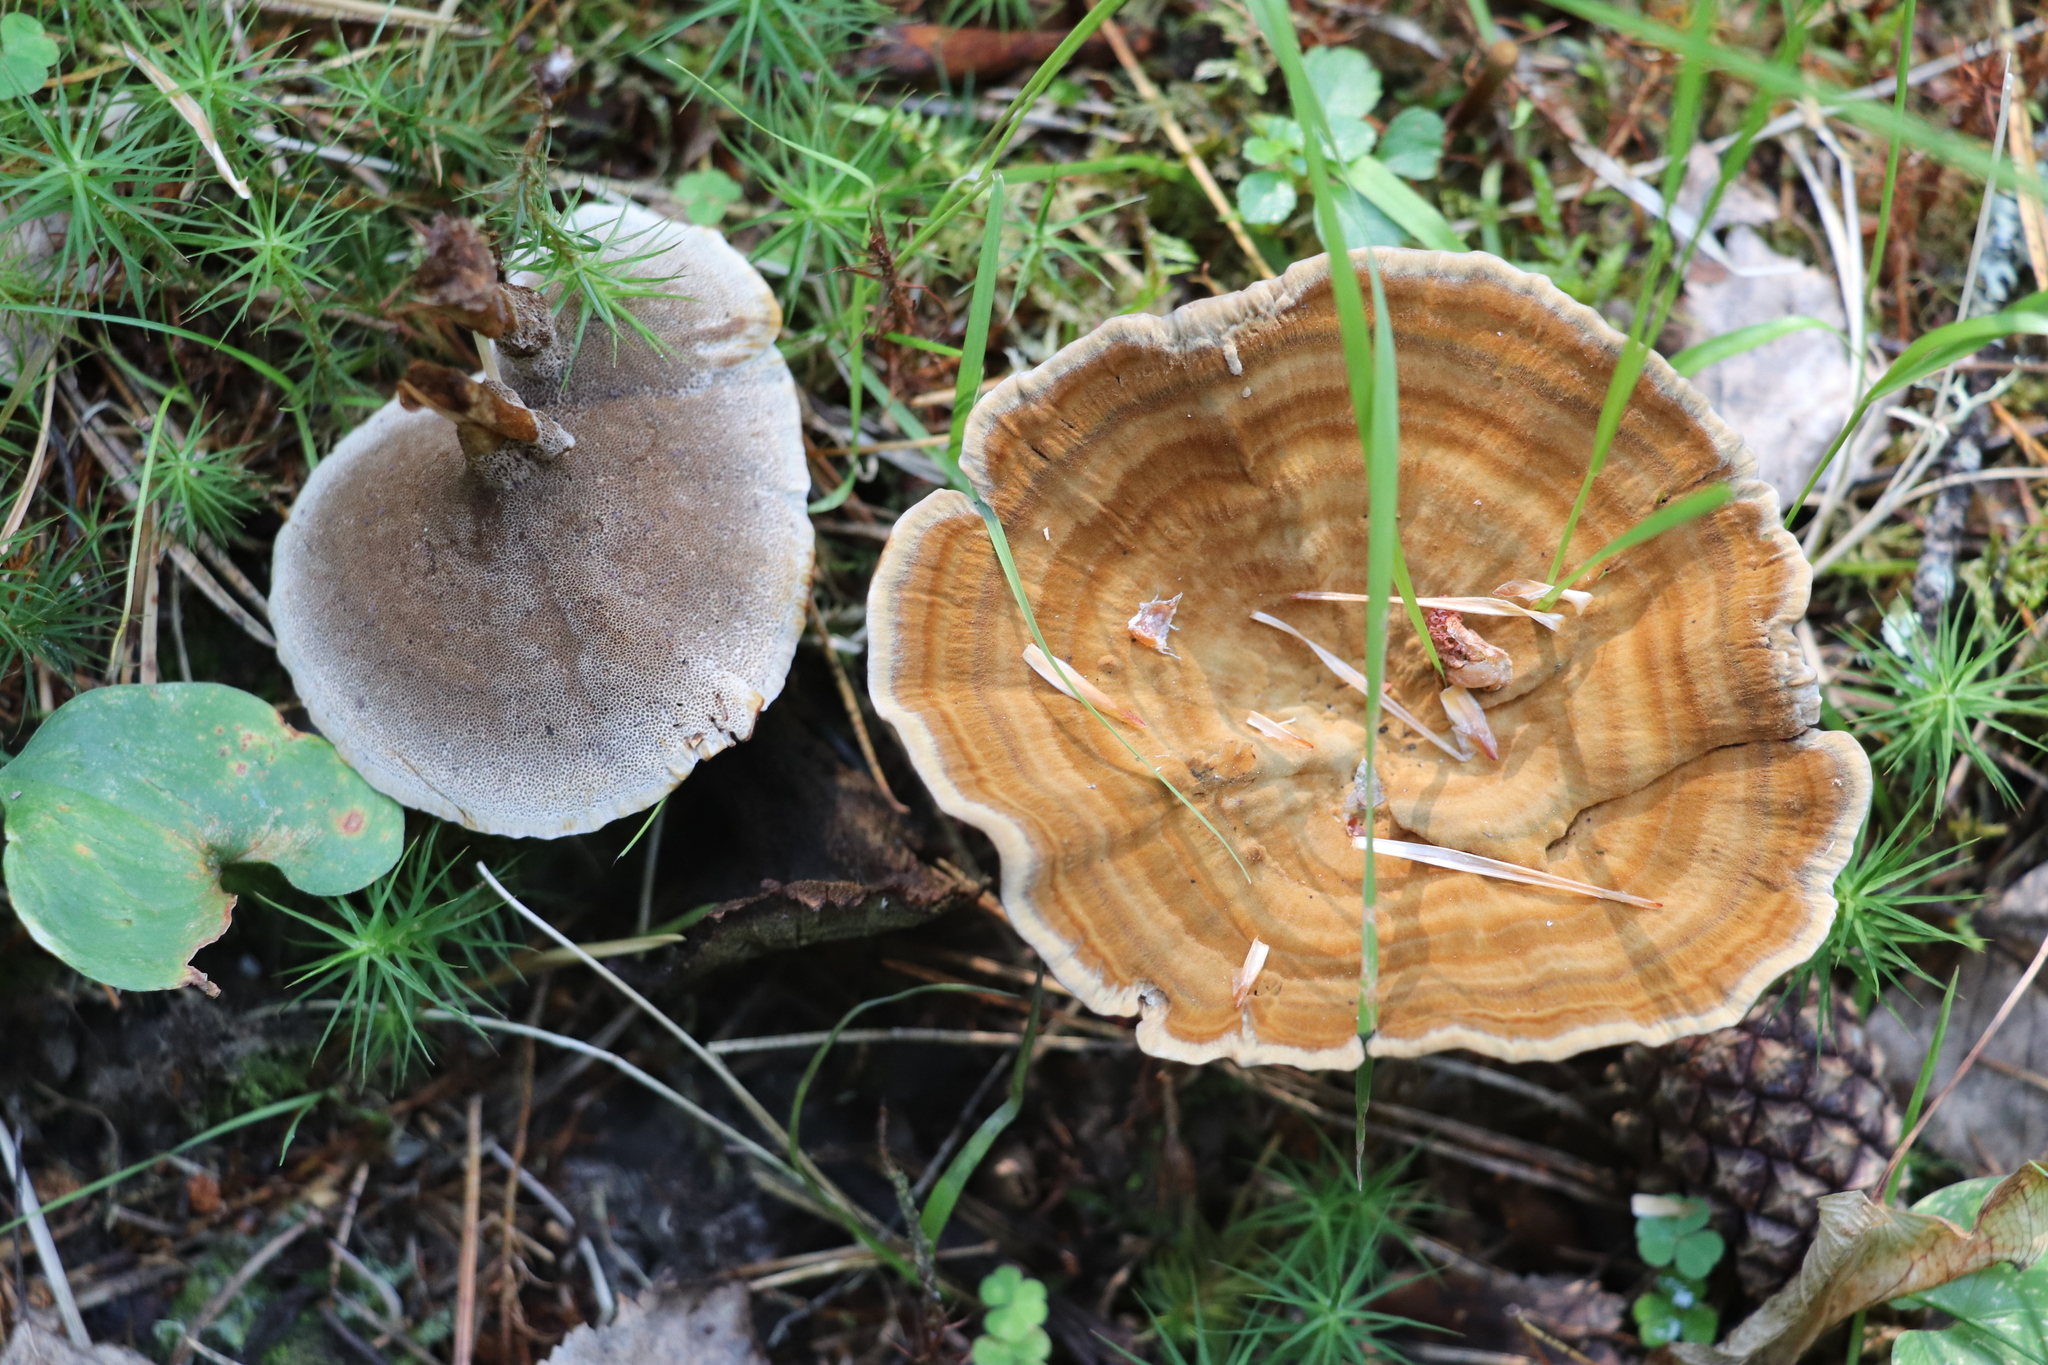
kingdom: Fungi
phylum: Basidiomycota
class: Agaricomycetes
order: Hymenochaetales
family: Hymenochaetaceae
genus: Coltricia
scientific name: Coltricia perennis
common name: Tiger's eye
